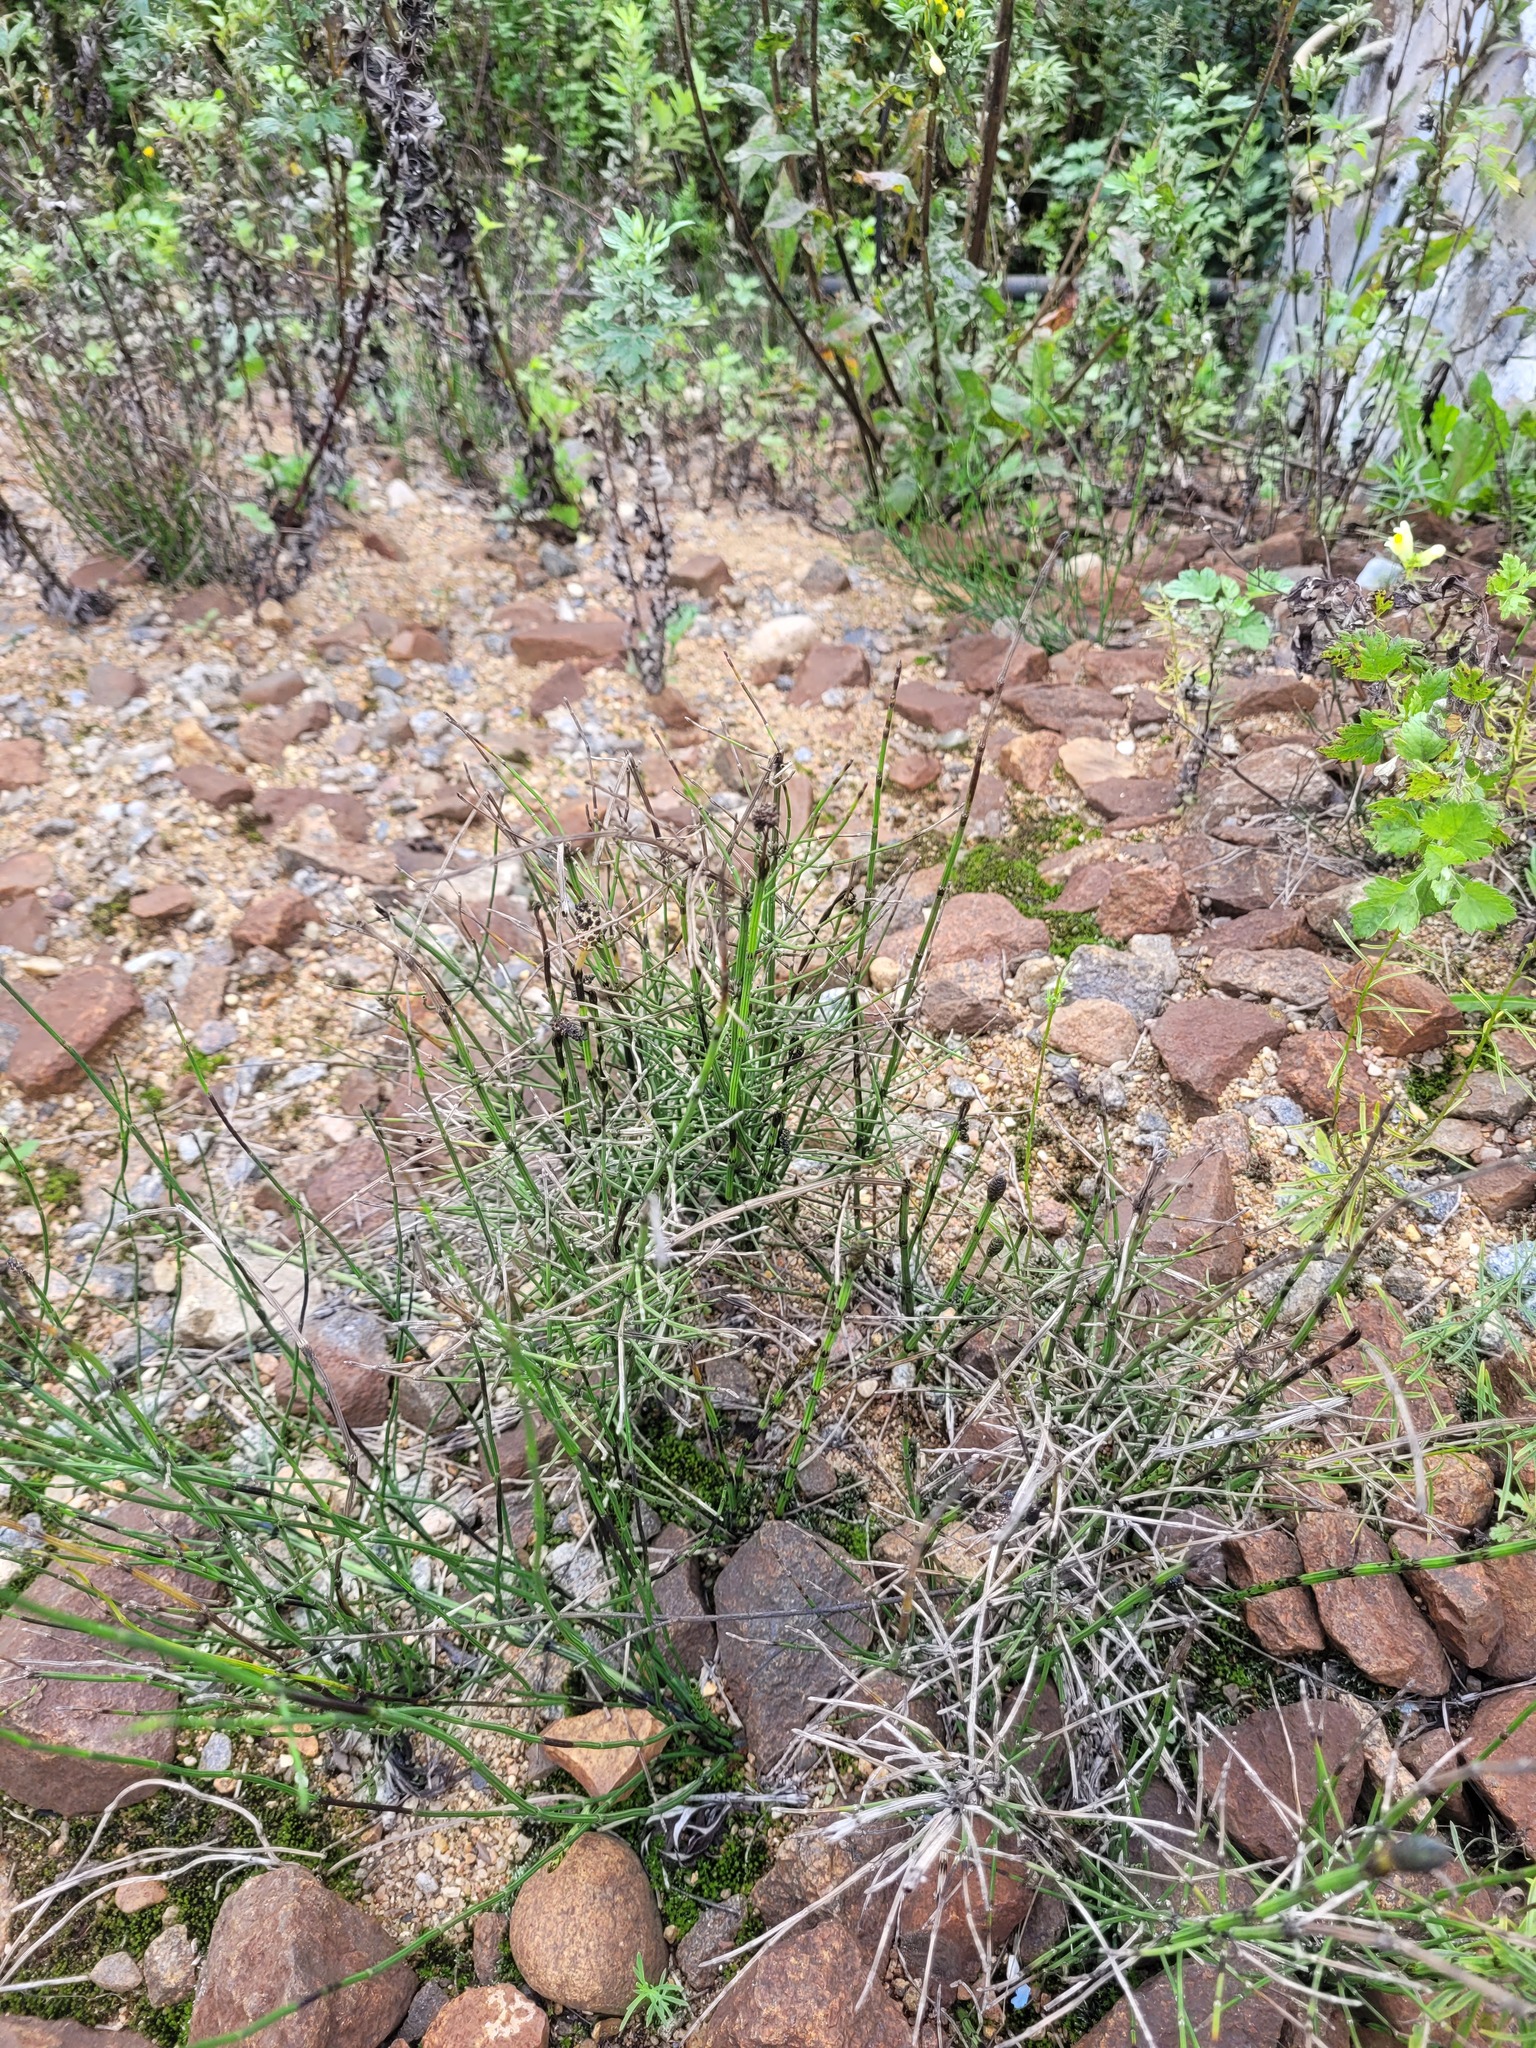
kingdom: Plantae
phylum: Tracheophyta
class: Polypodiopsida
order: Equisetales
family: Equisetaceae
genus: Equisetum
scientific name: Equisetum palustre
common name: Marsh horsetail
